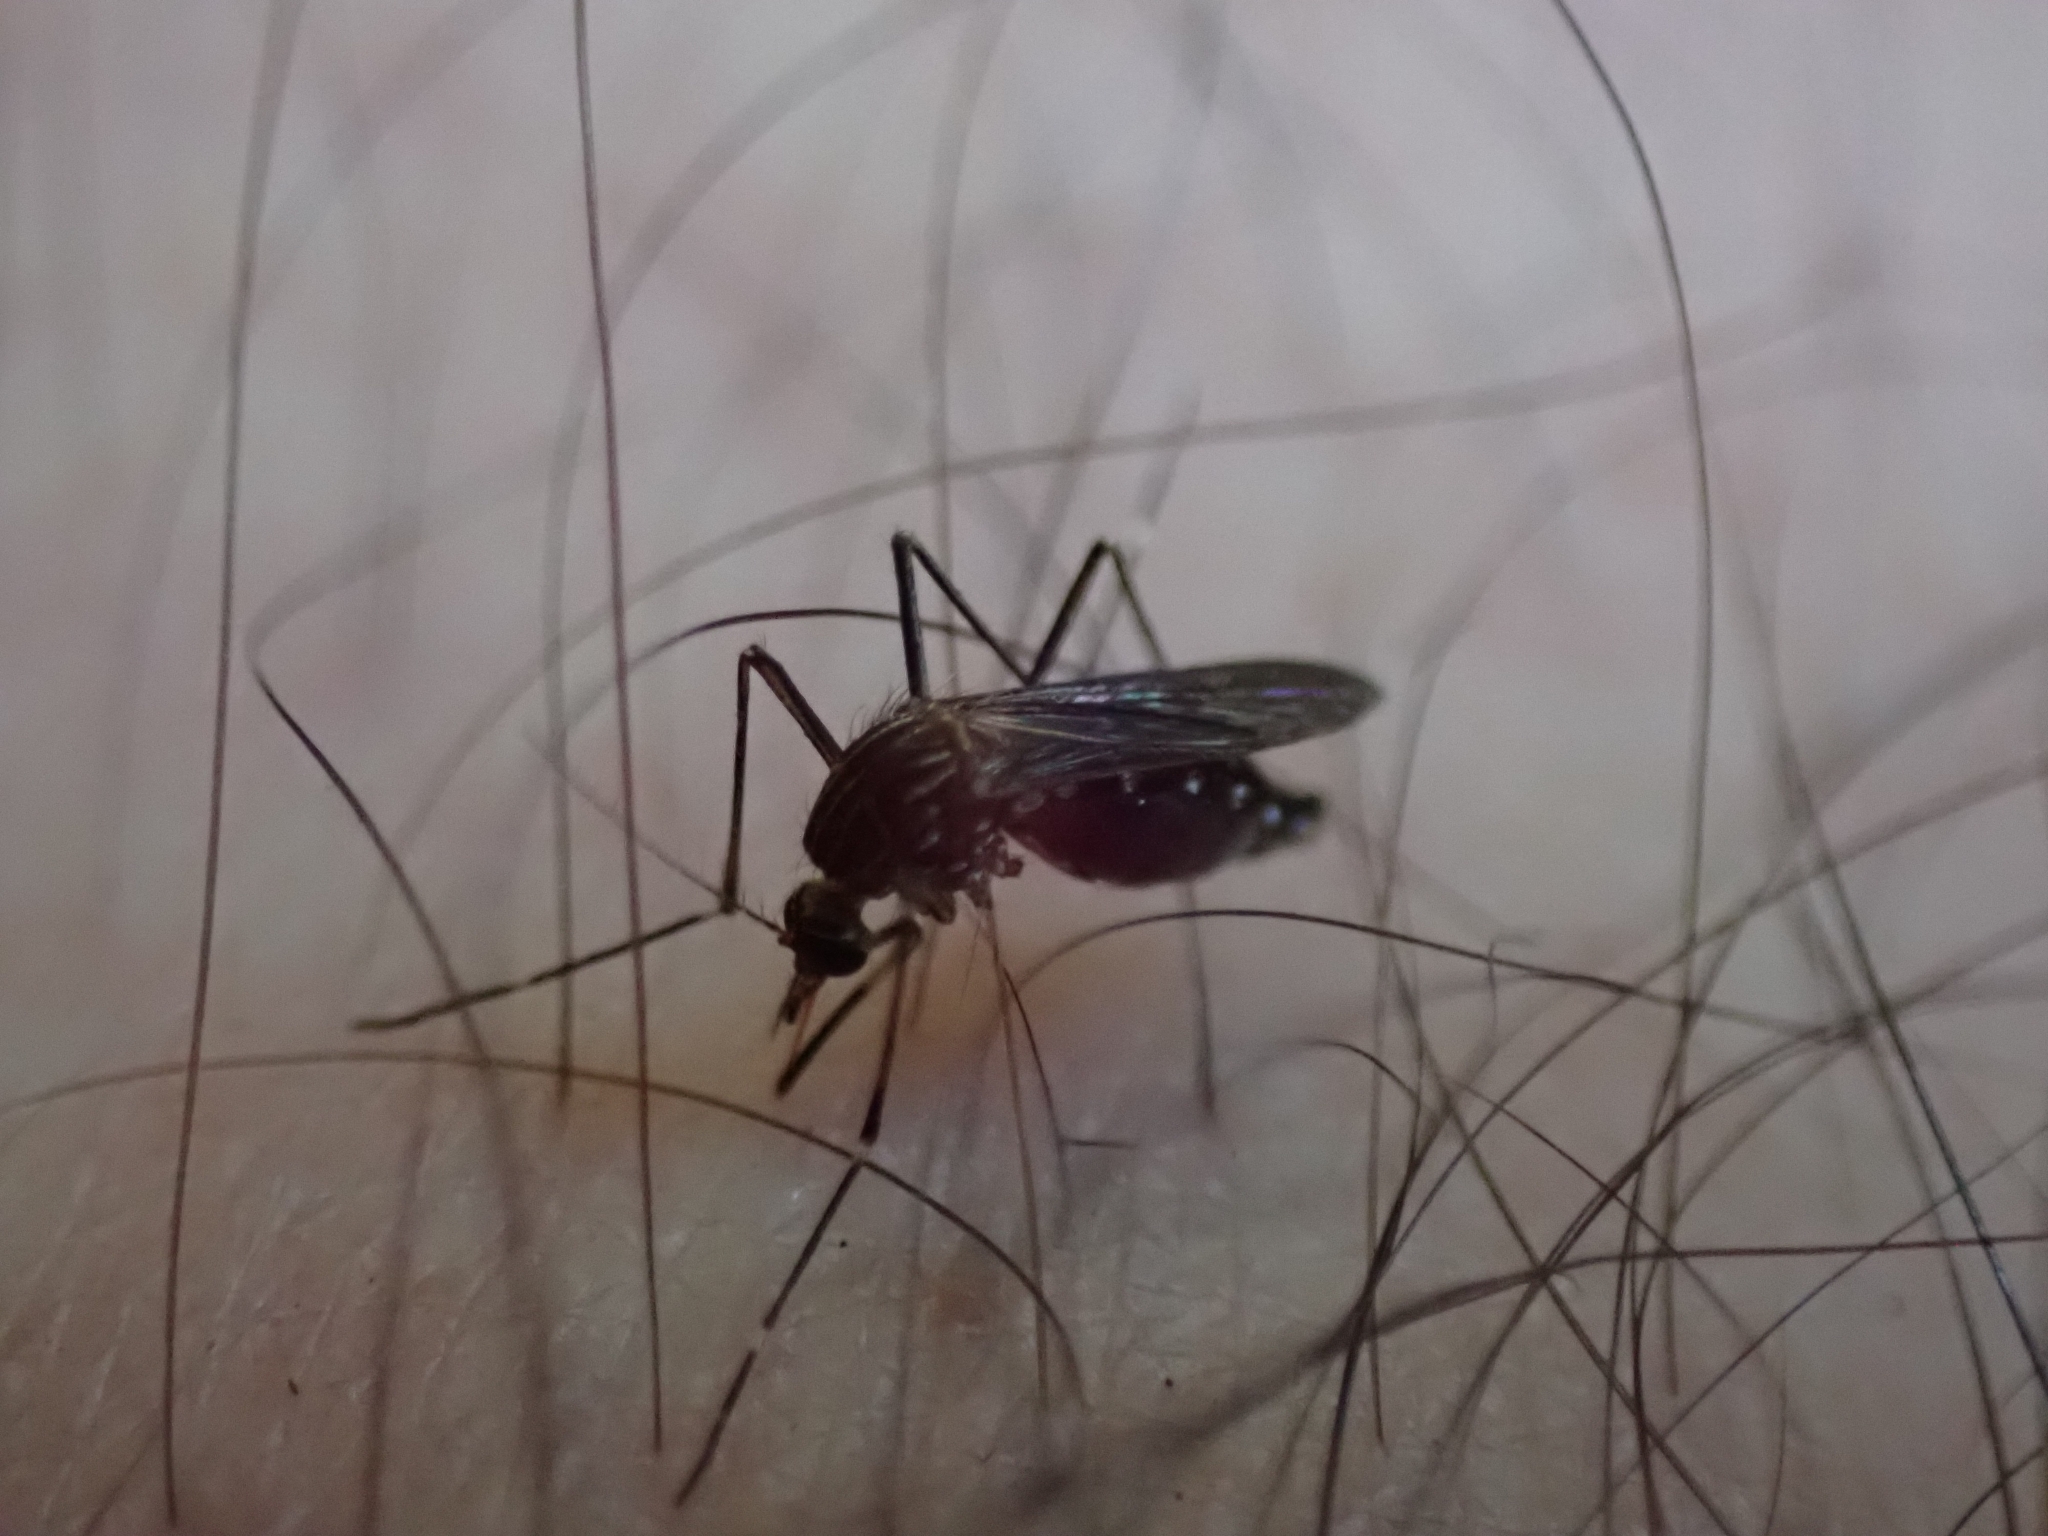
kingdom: Animalia
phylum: Arthropoda
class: Insecta
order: Diptera
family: Culicidae
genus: Aedes
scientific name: Aedes notoscriptus
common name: Australian backyard mosquito
